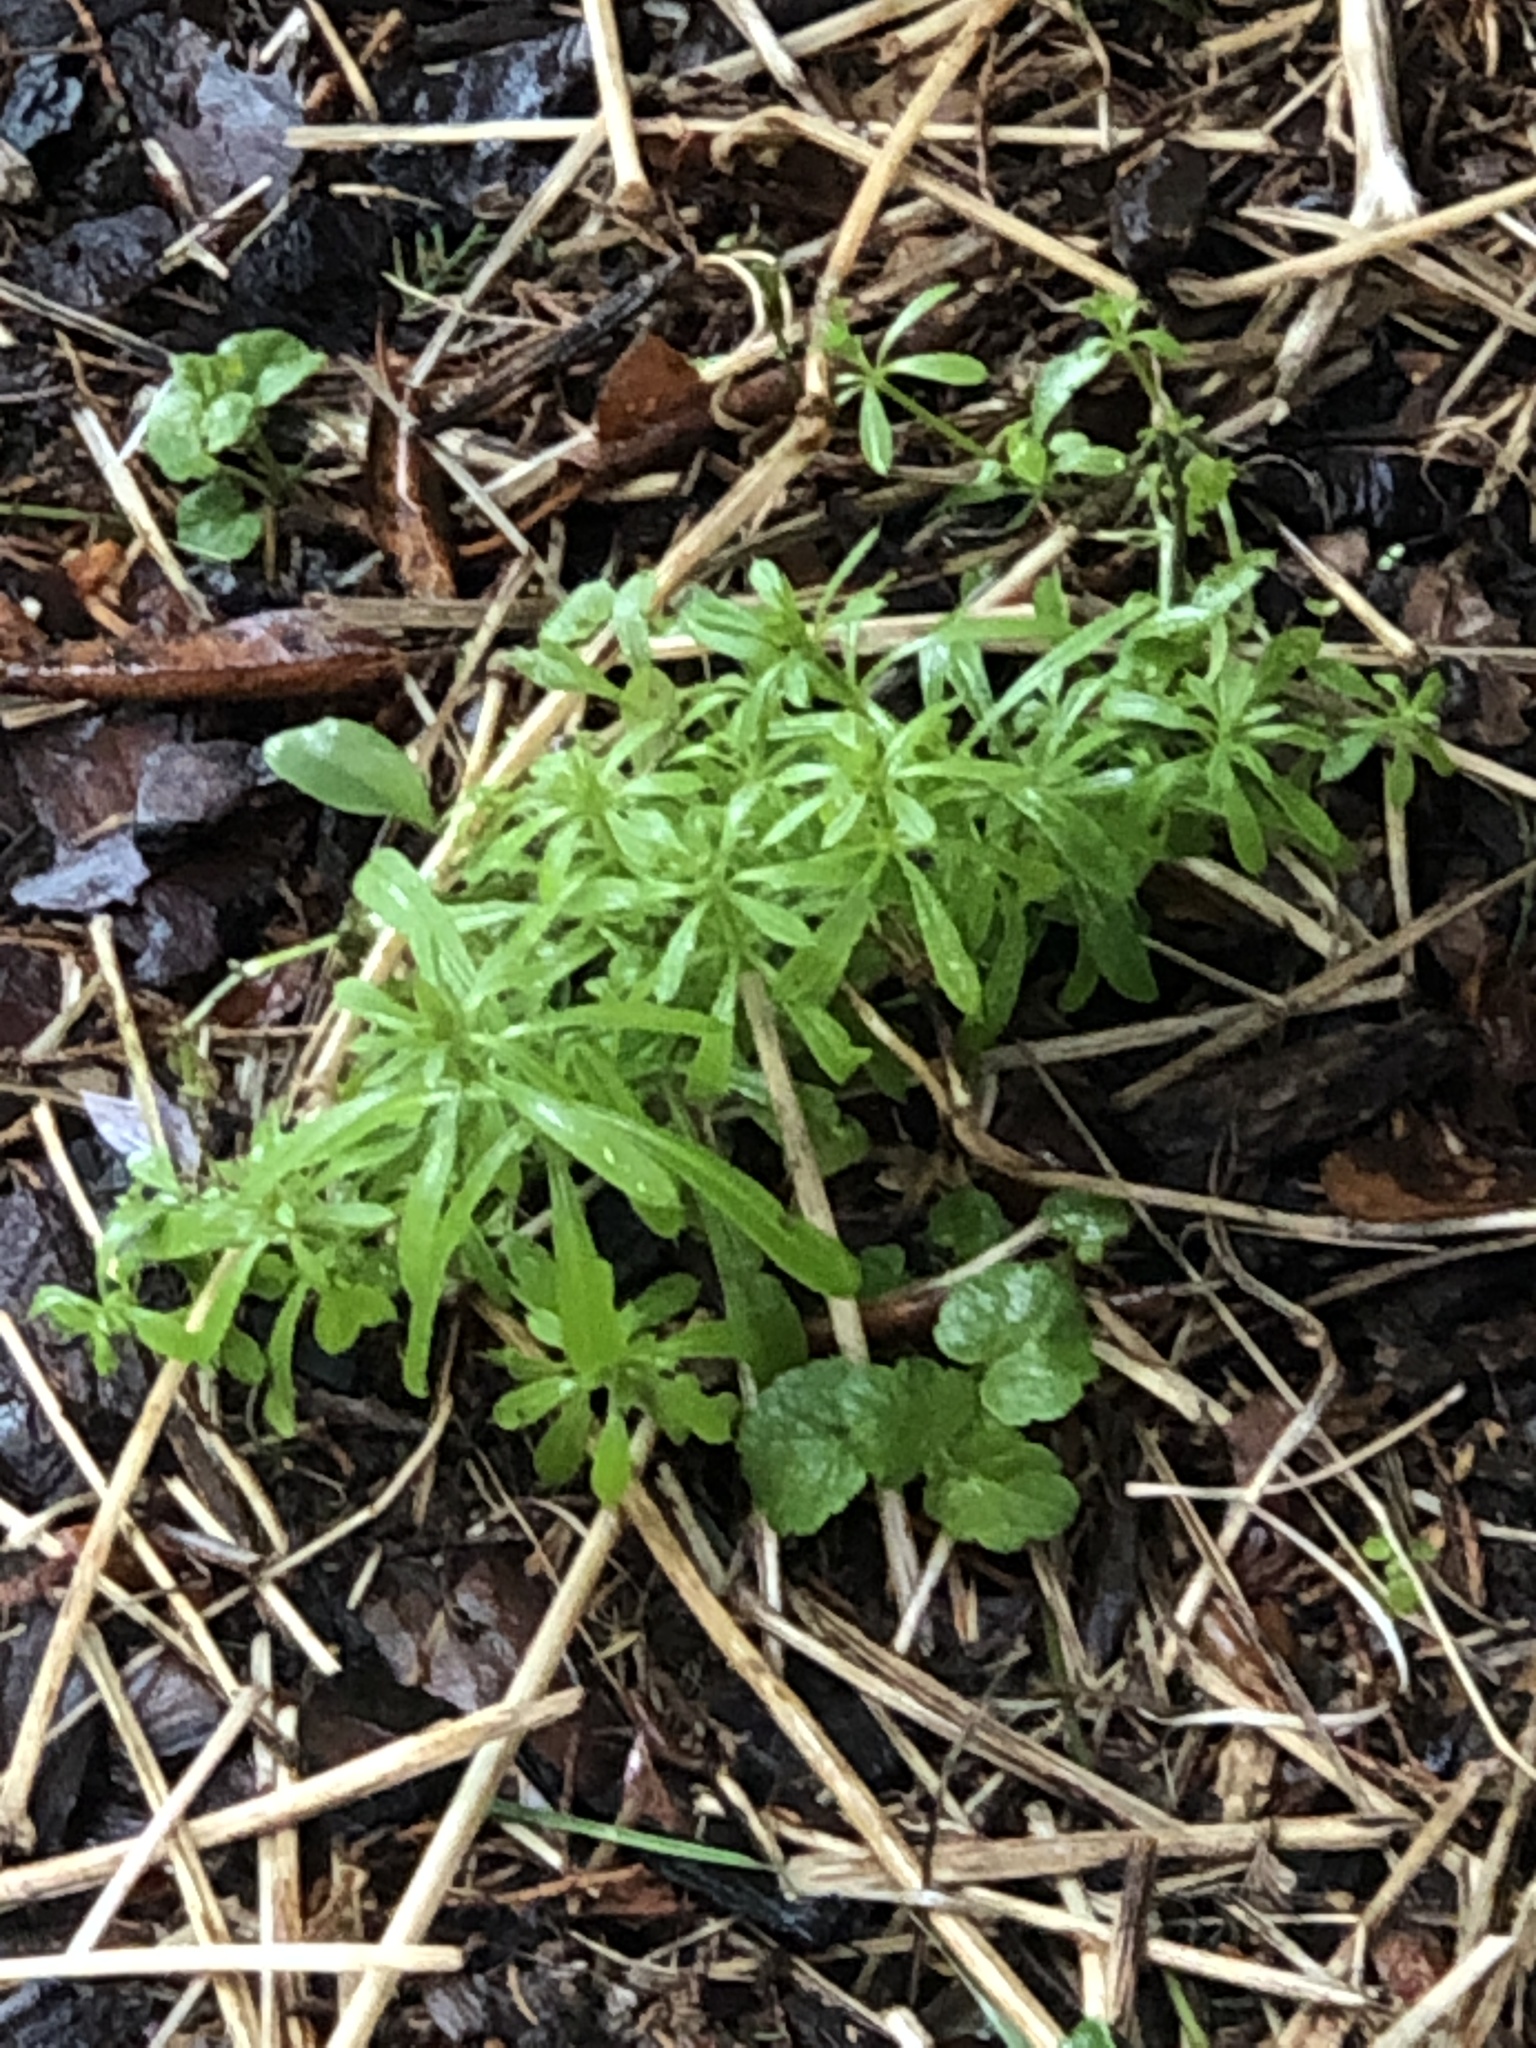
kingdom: Plantae
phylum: Tracheophyta
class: Magnoliopsida
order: Gentianales
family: Rubiaceae
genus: Galium
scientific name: Galium aparine
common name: Cleavers
